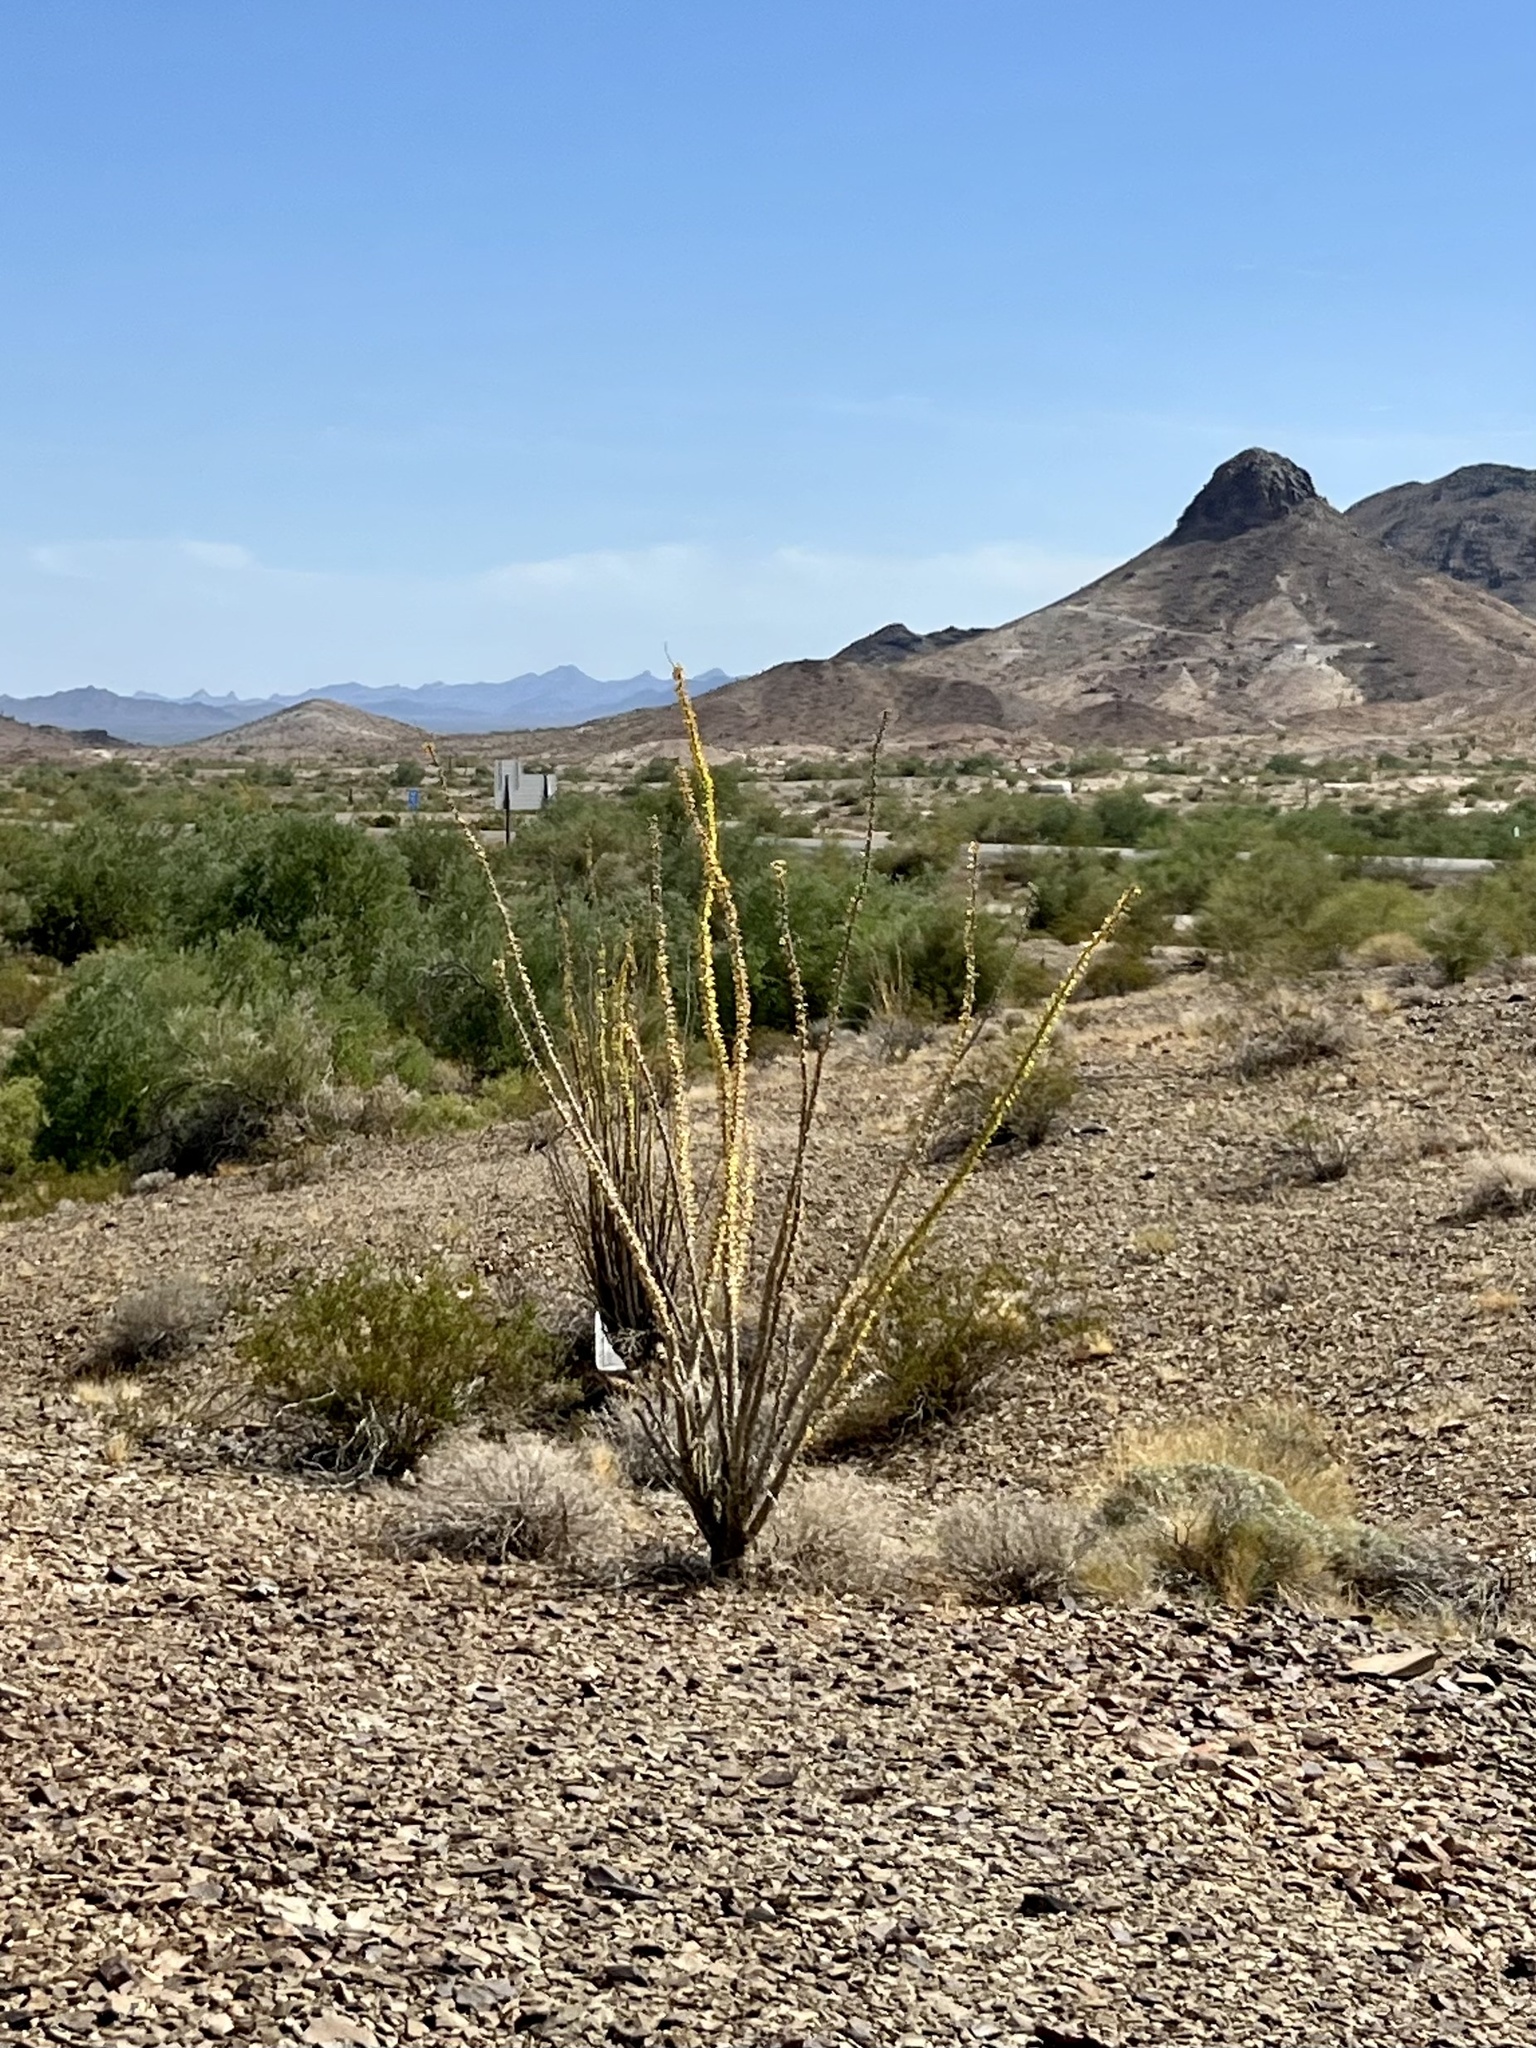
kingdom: Plantae
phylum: Tracheophyta
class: Magnoliopsida
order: Ericales
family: Fouquieriaceae
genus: Fouquieria
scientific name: Fouquieria splendens
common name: Vine-cactus
